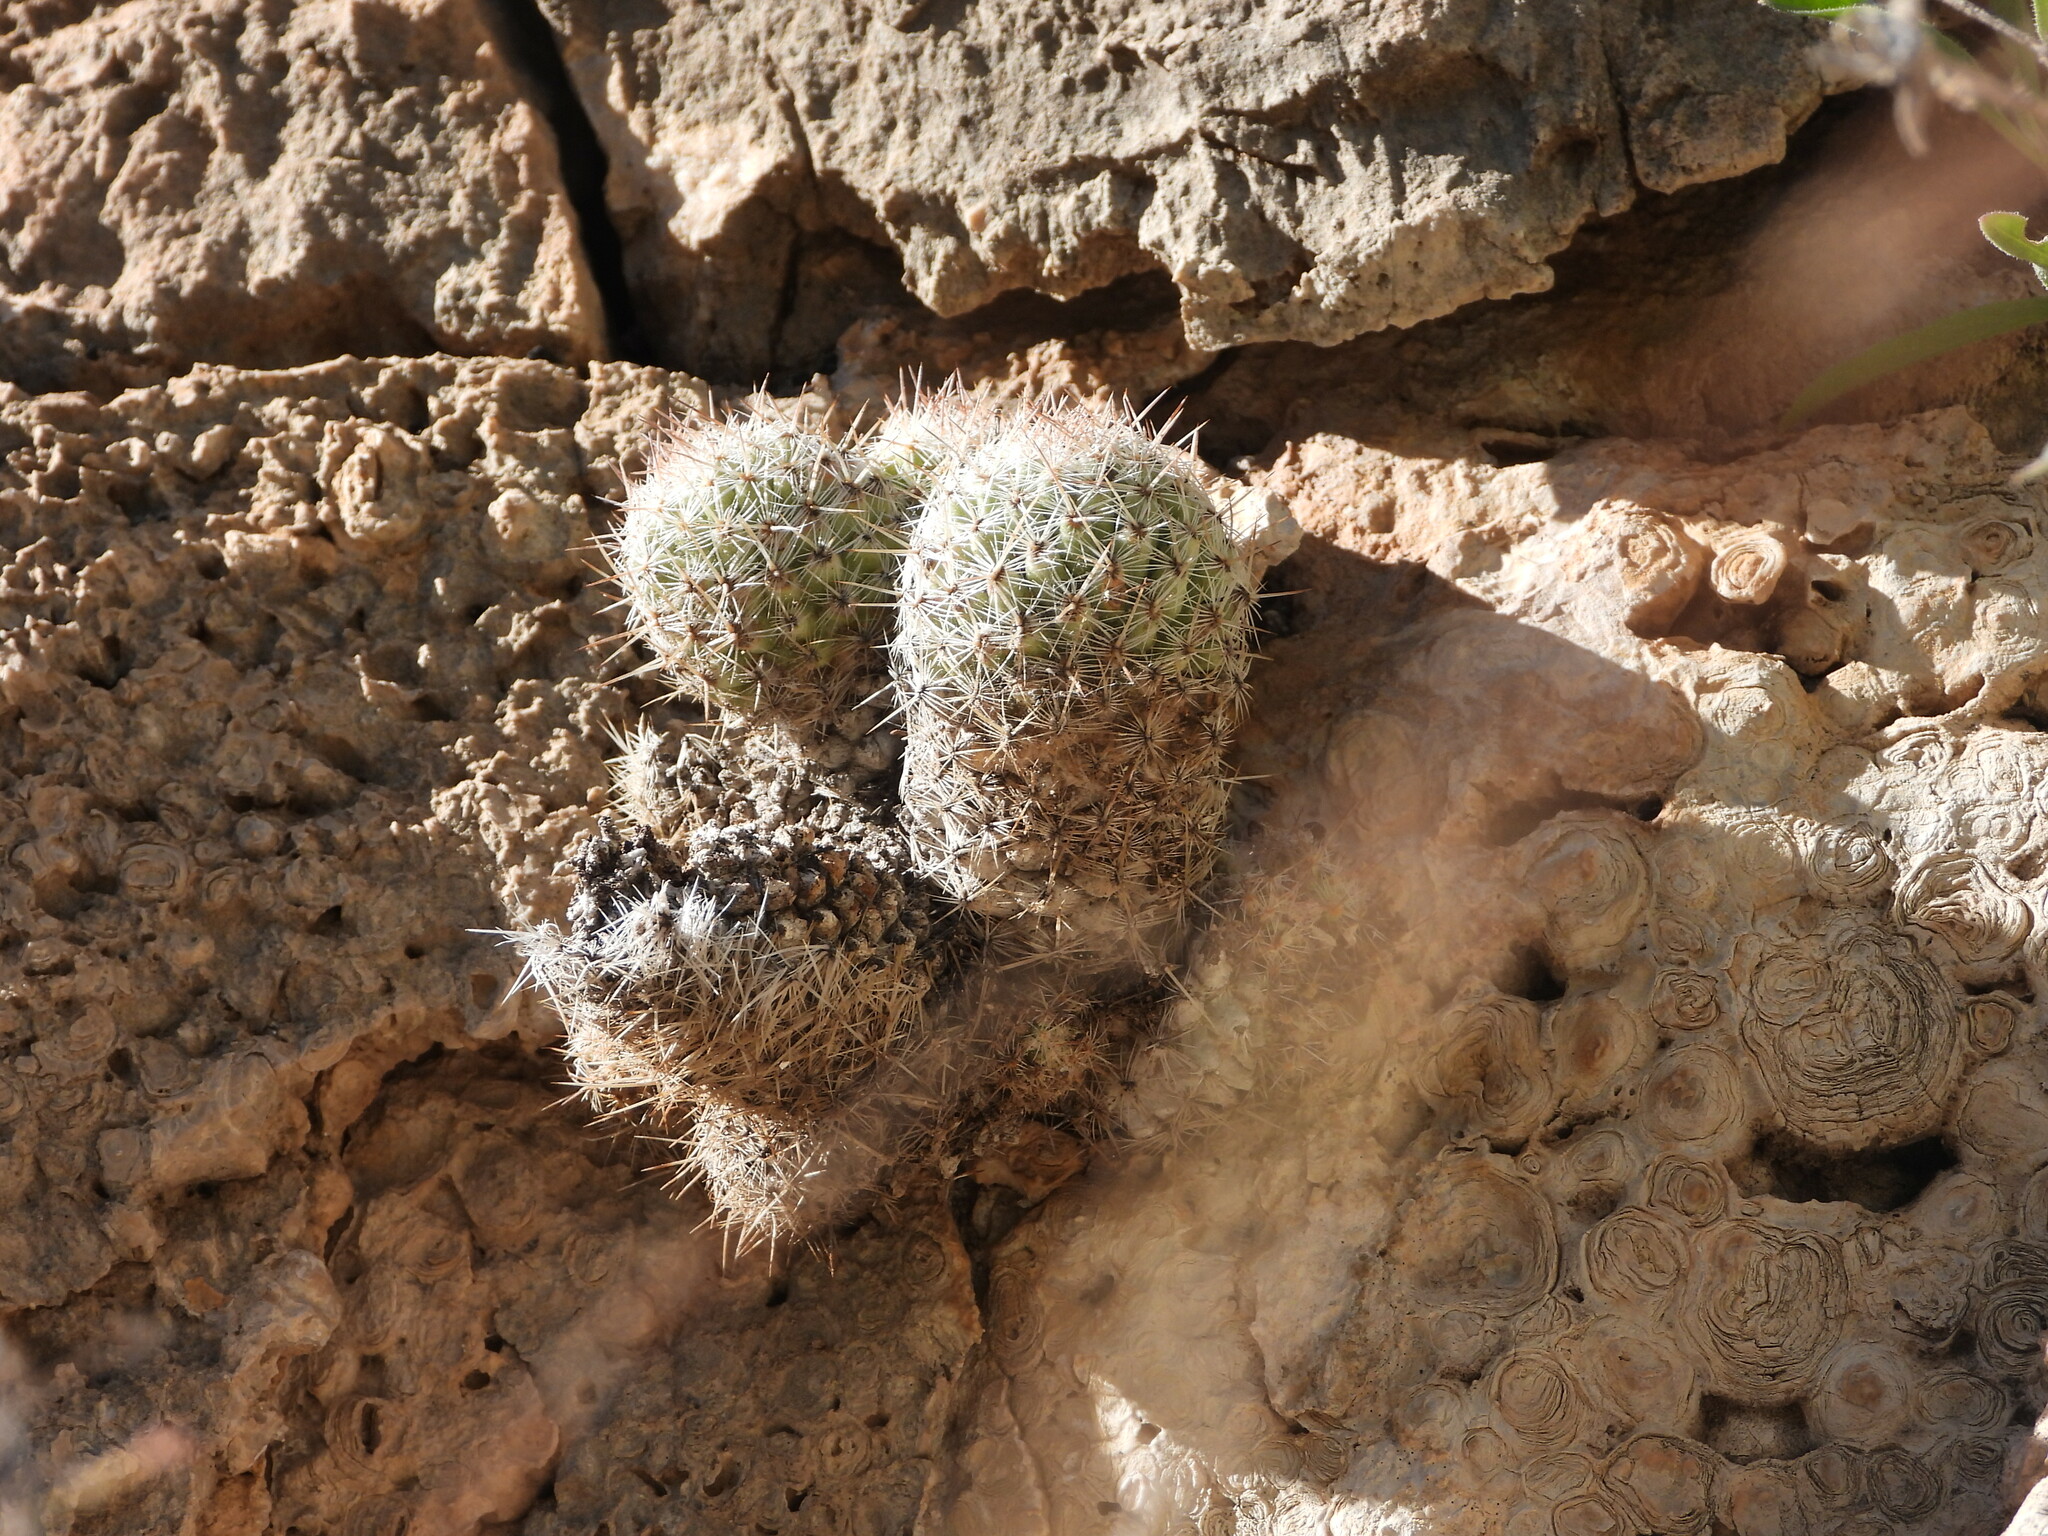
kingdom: Plantae
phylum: Tracheophyta
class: Magnoliopsida
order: Caryophyllales
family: Cactaceae
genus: Pelecyphora
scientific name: Pelecyphora tuberculosa
